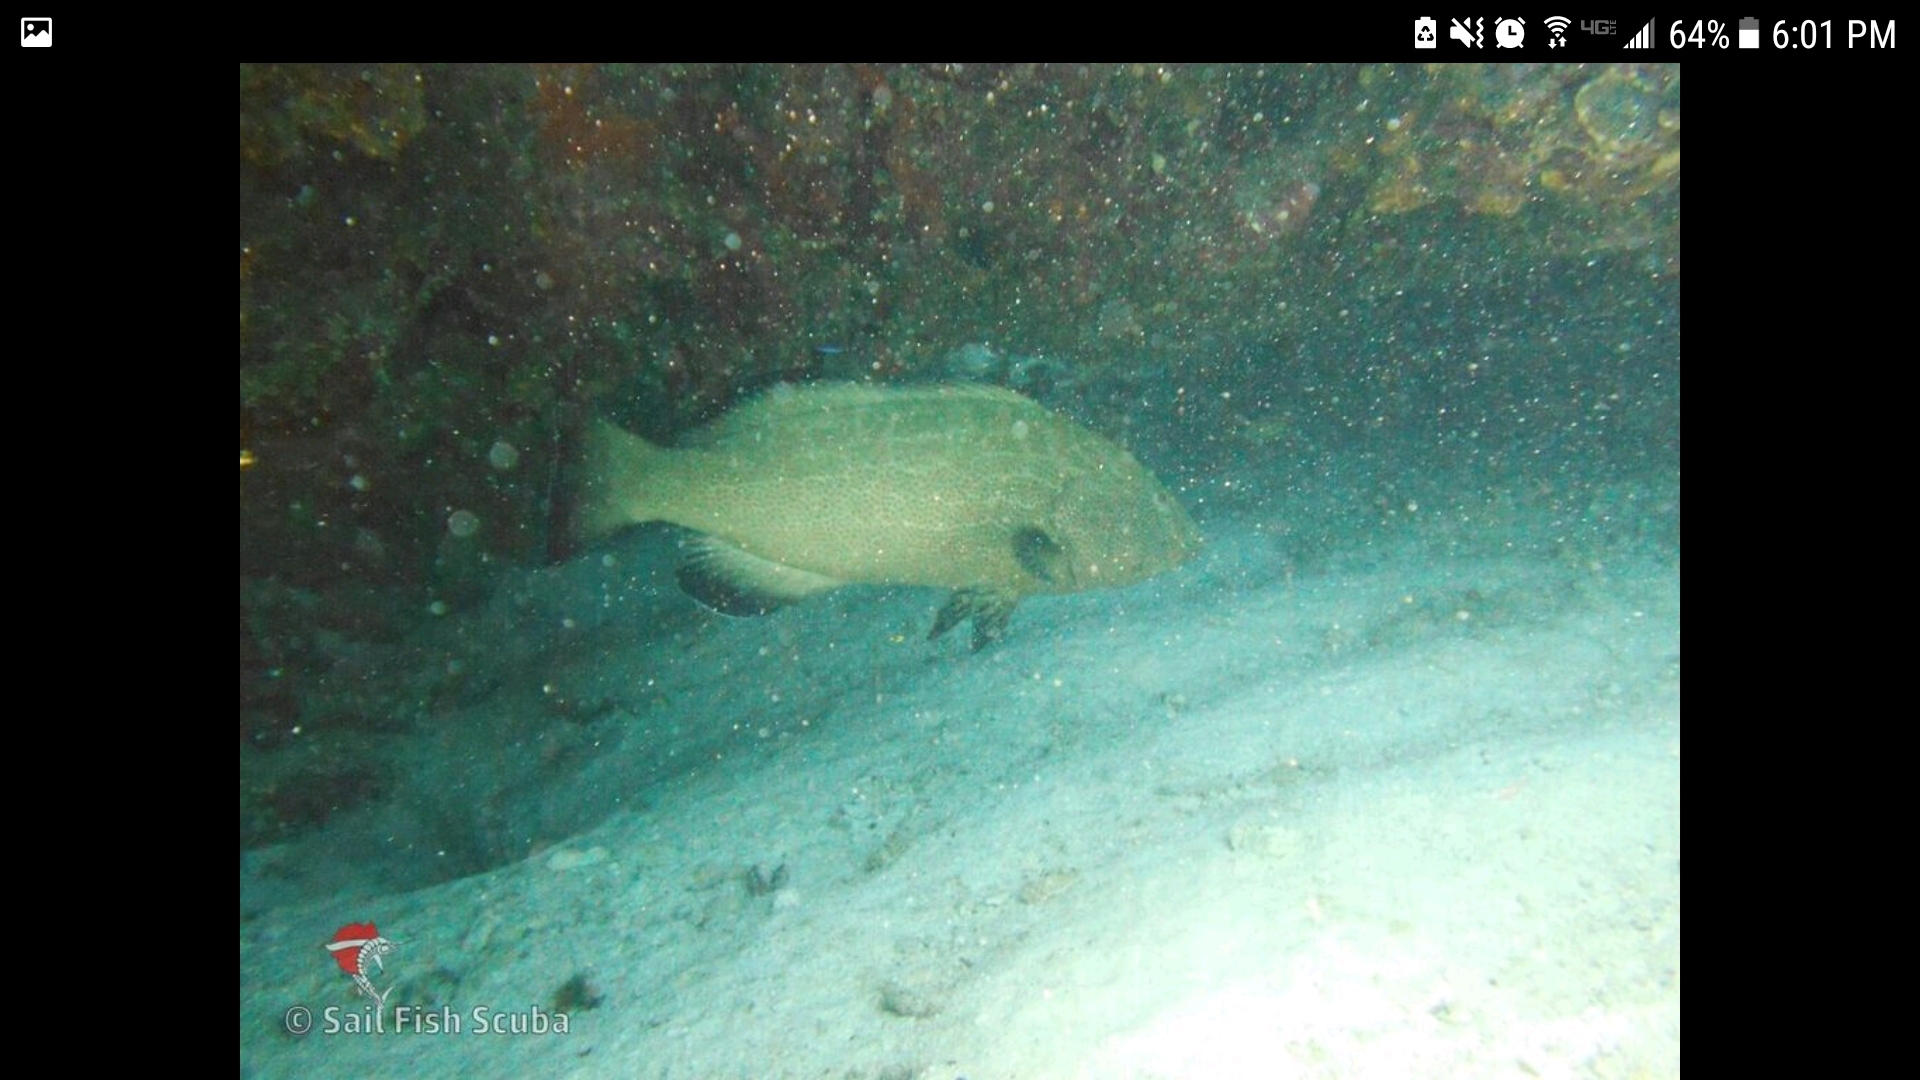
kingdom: Animalia
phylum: Chordata
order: Perciformes
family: Serranidae
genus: Mycteroperca
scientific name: Mycteroperca bonaci
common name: Black grouper
